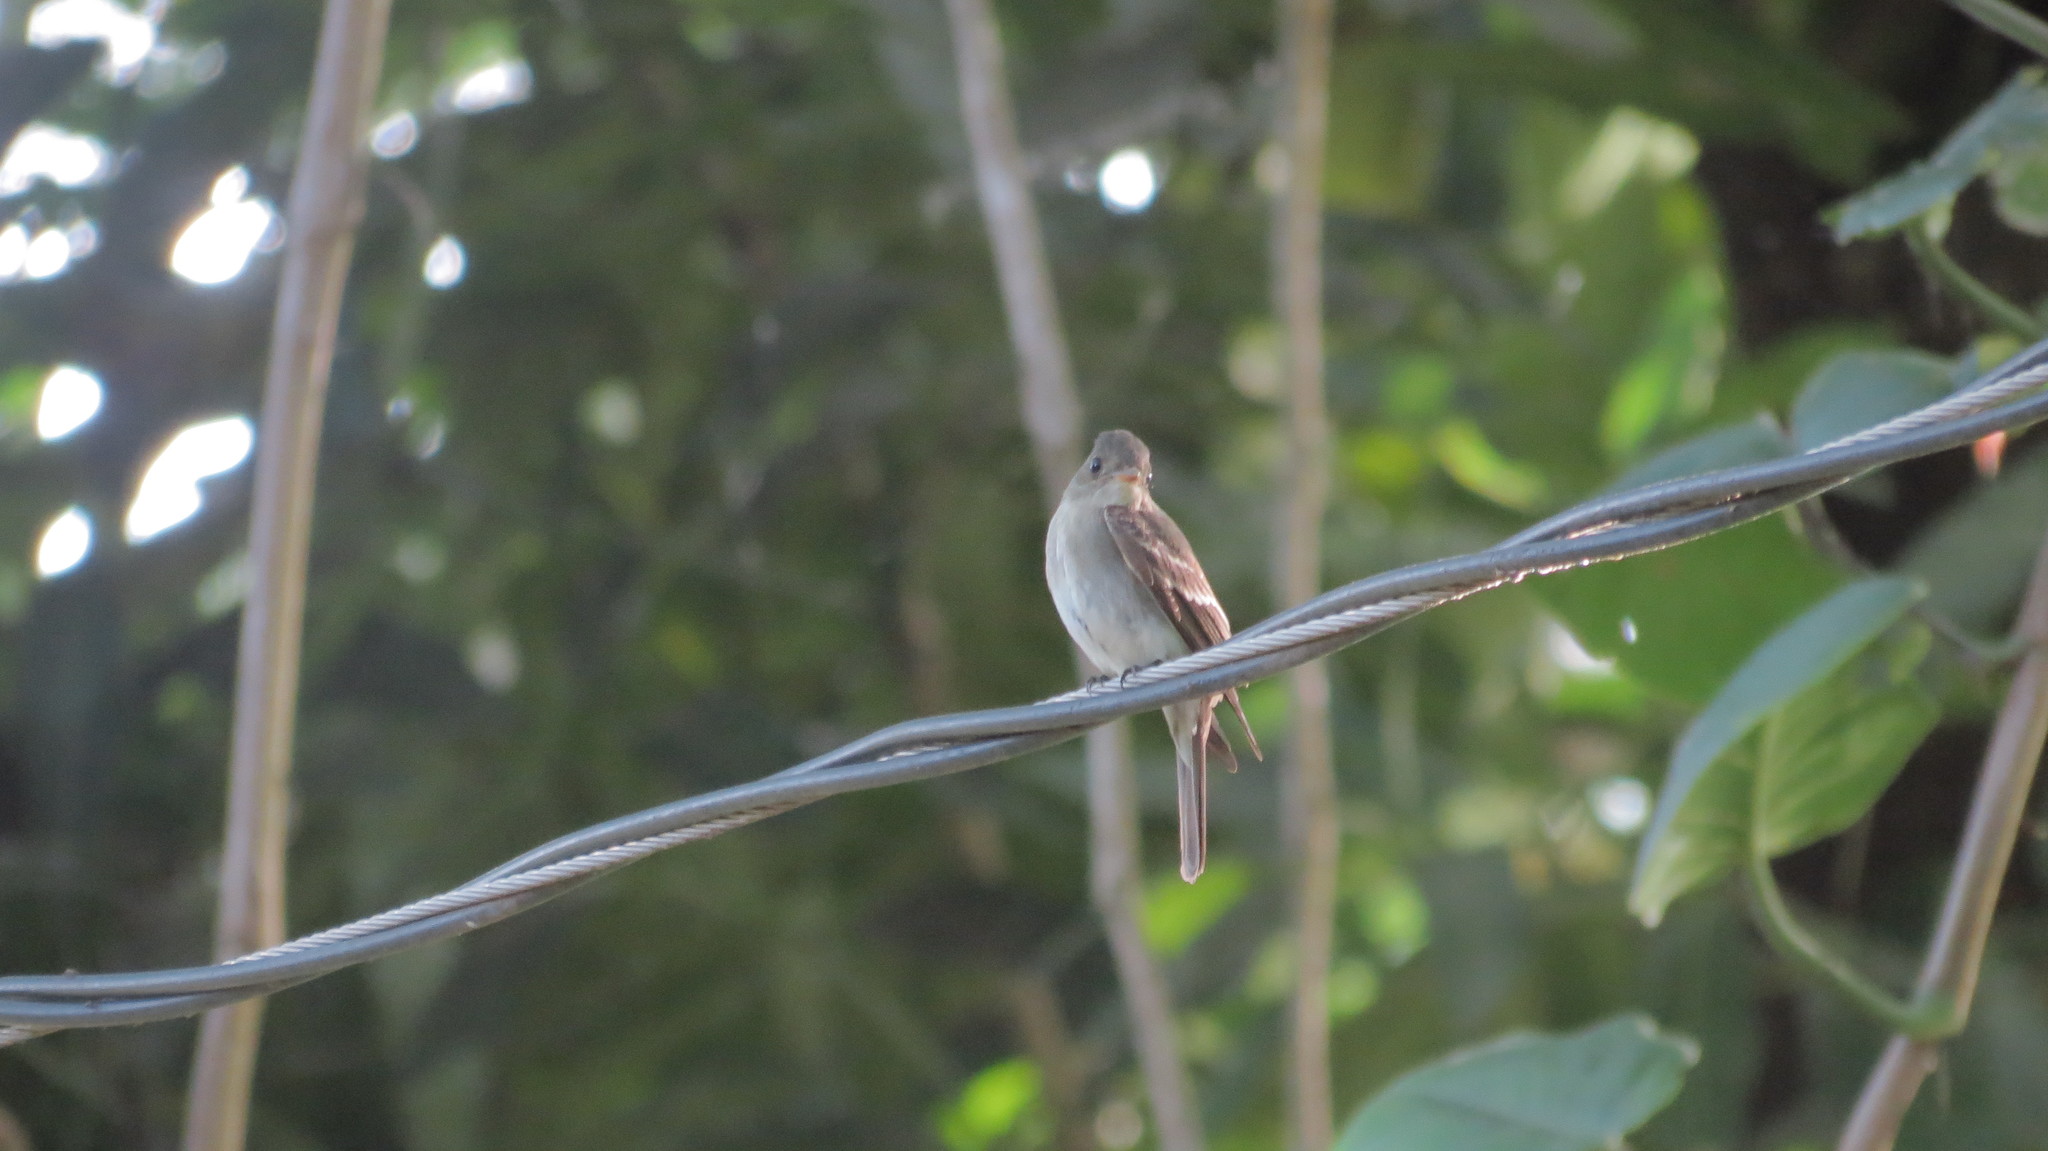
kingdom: Animalia
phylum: Chordata
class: Aves
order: Passeriformes
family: Tyrannidae
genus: Contopus
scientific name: Contopus virens
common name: Eastern wood-pewee
